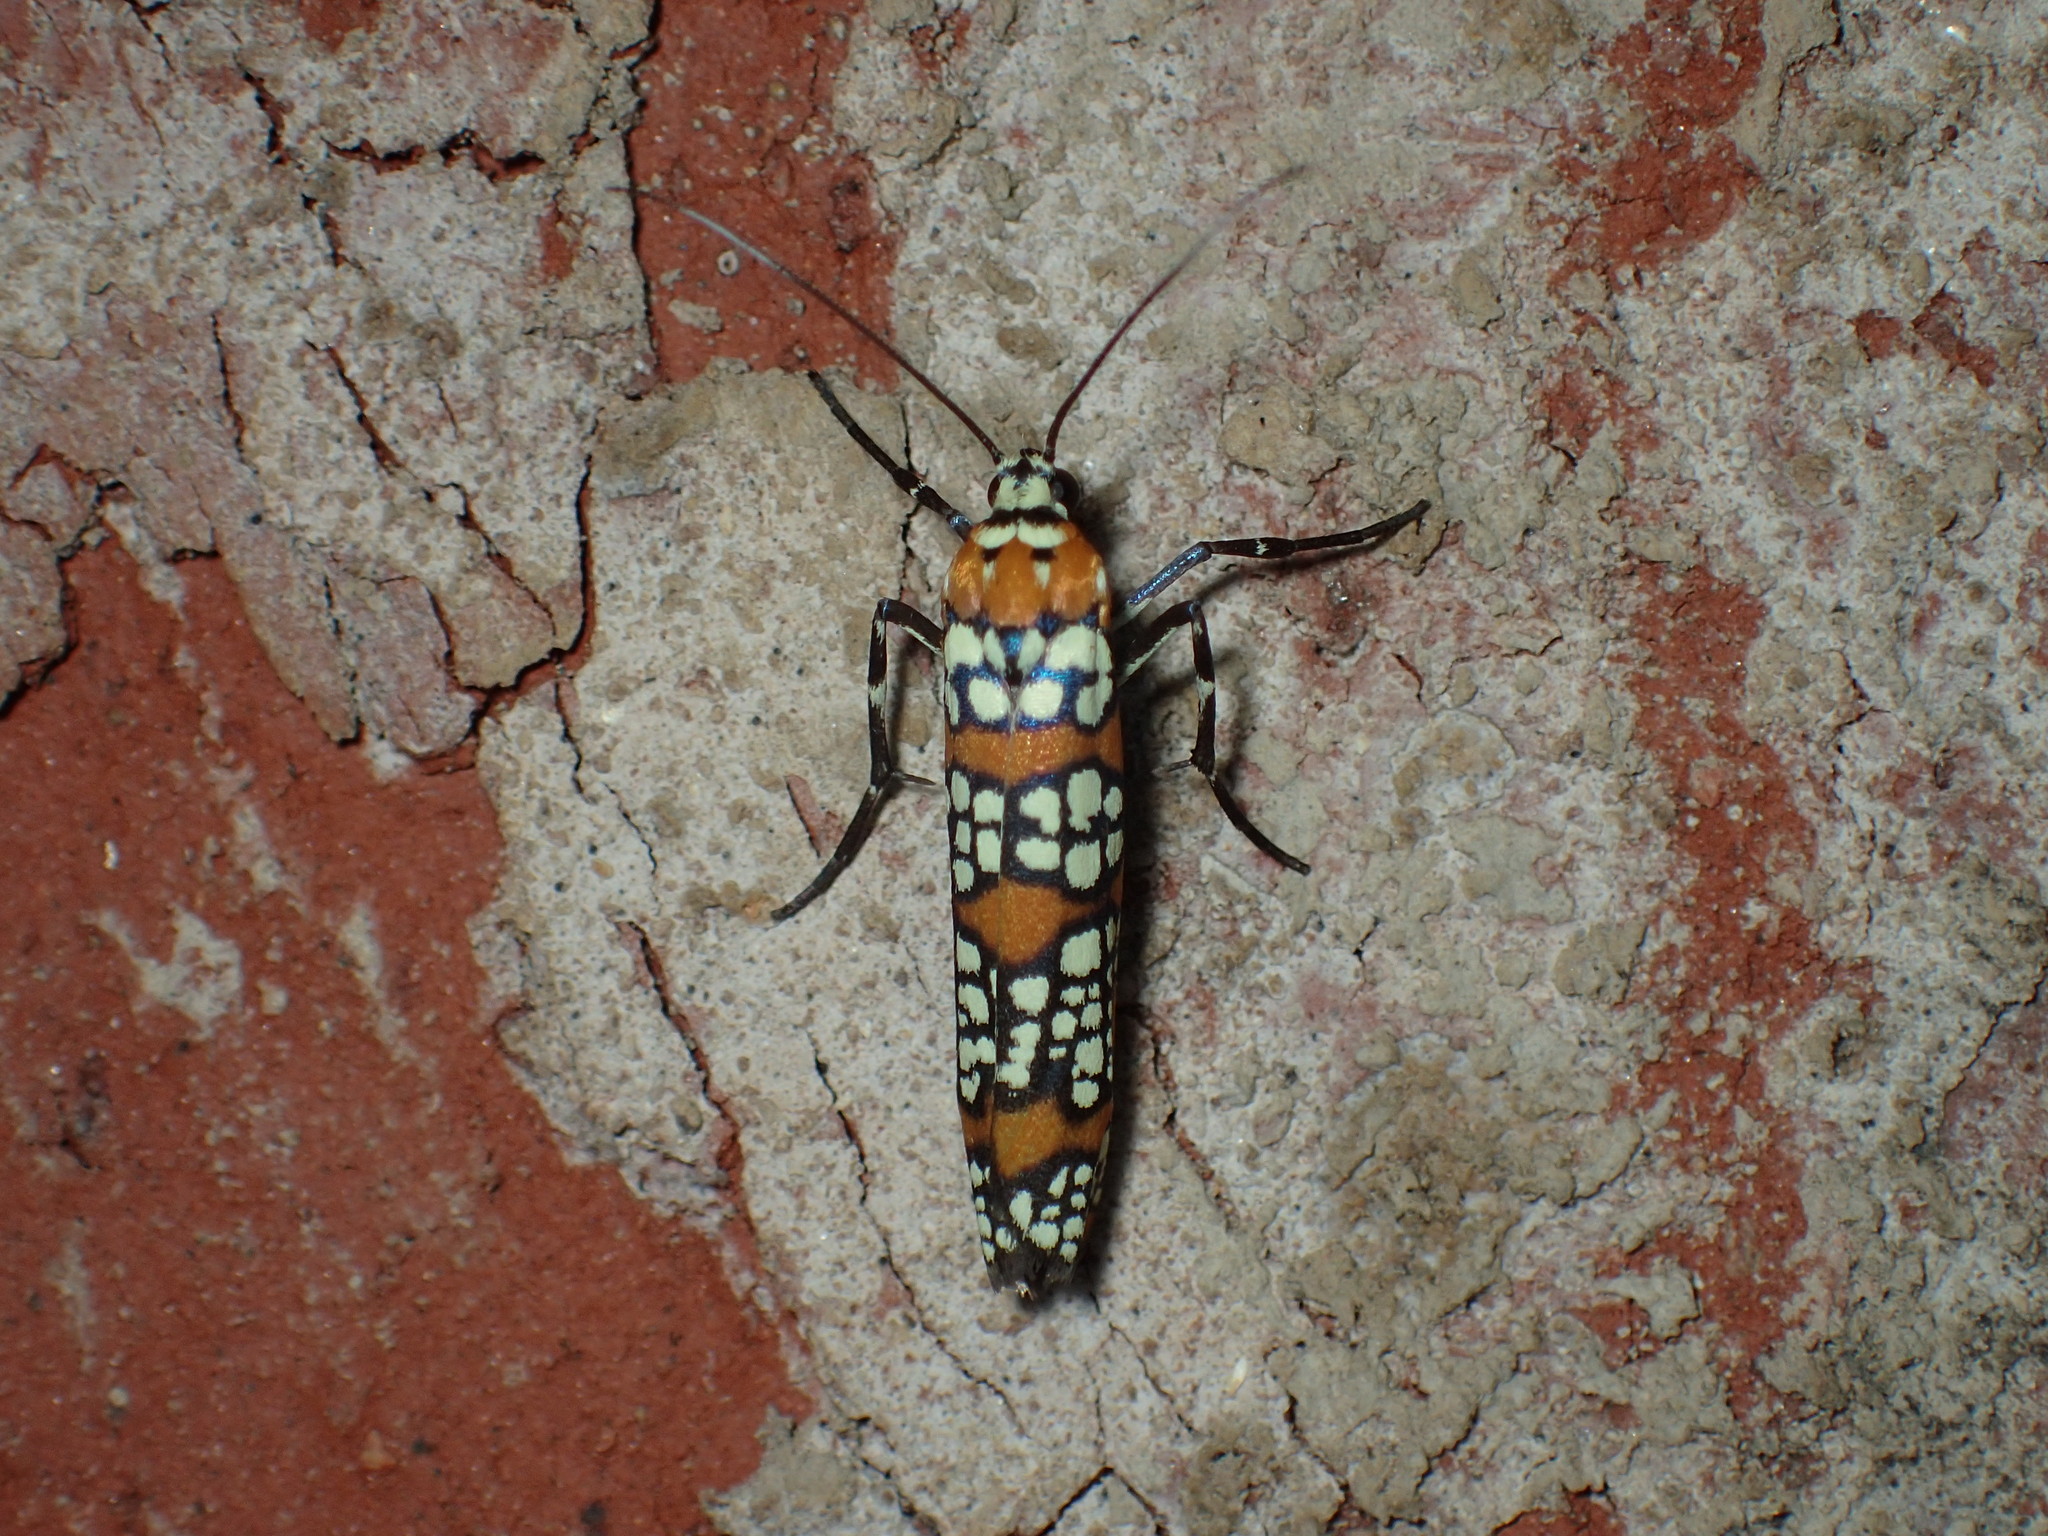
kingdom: Animalia
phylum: Arthropoda
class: Insecta
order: Lepidoptera
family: Attevidae
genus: Atteva
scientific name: Atteva punctella
